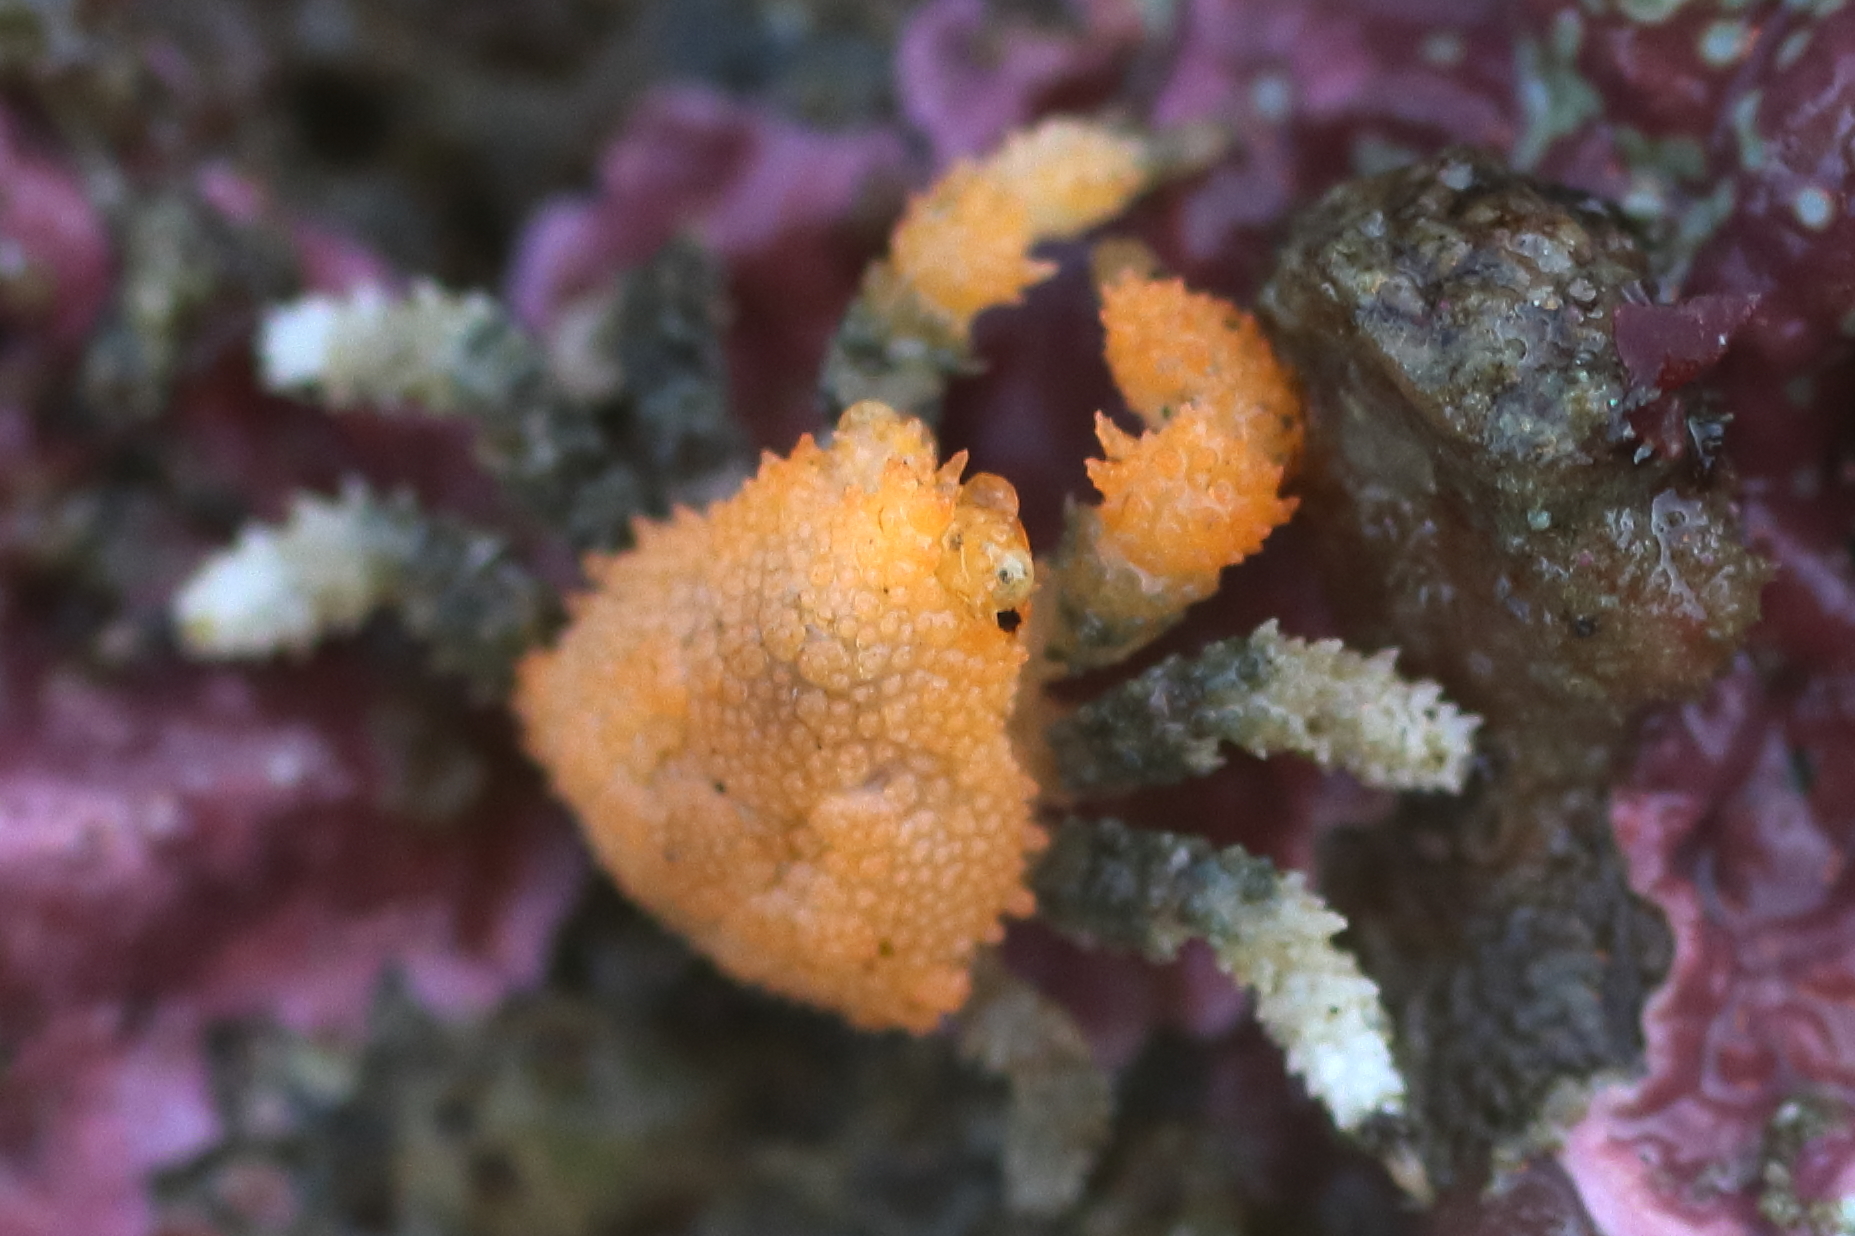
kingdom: Animalia
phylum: Arthropoda
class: Malacostraca
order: Decapoda
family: Lithodidae
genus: Phyllolithodes
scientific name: Phyllolithodes papillosus
